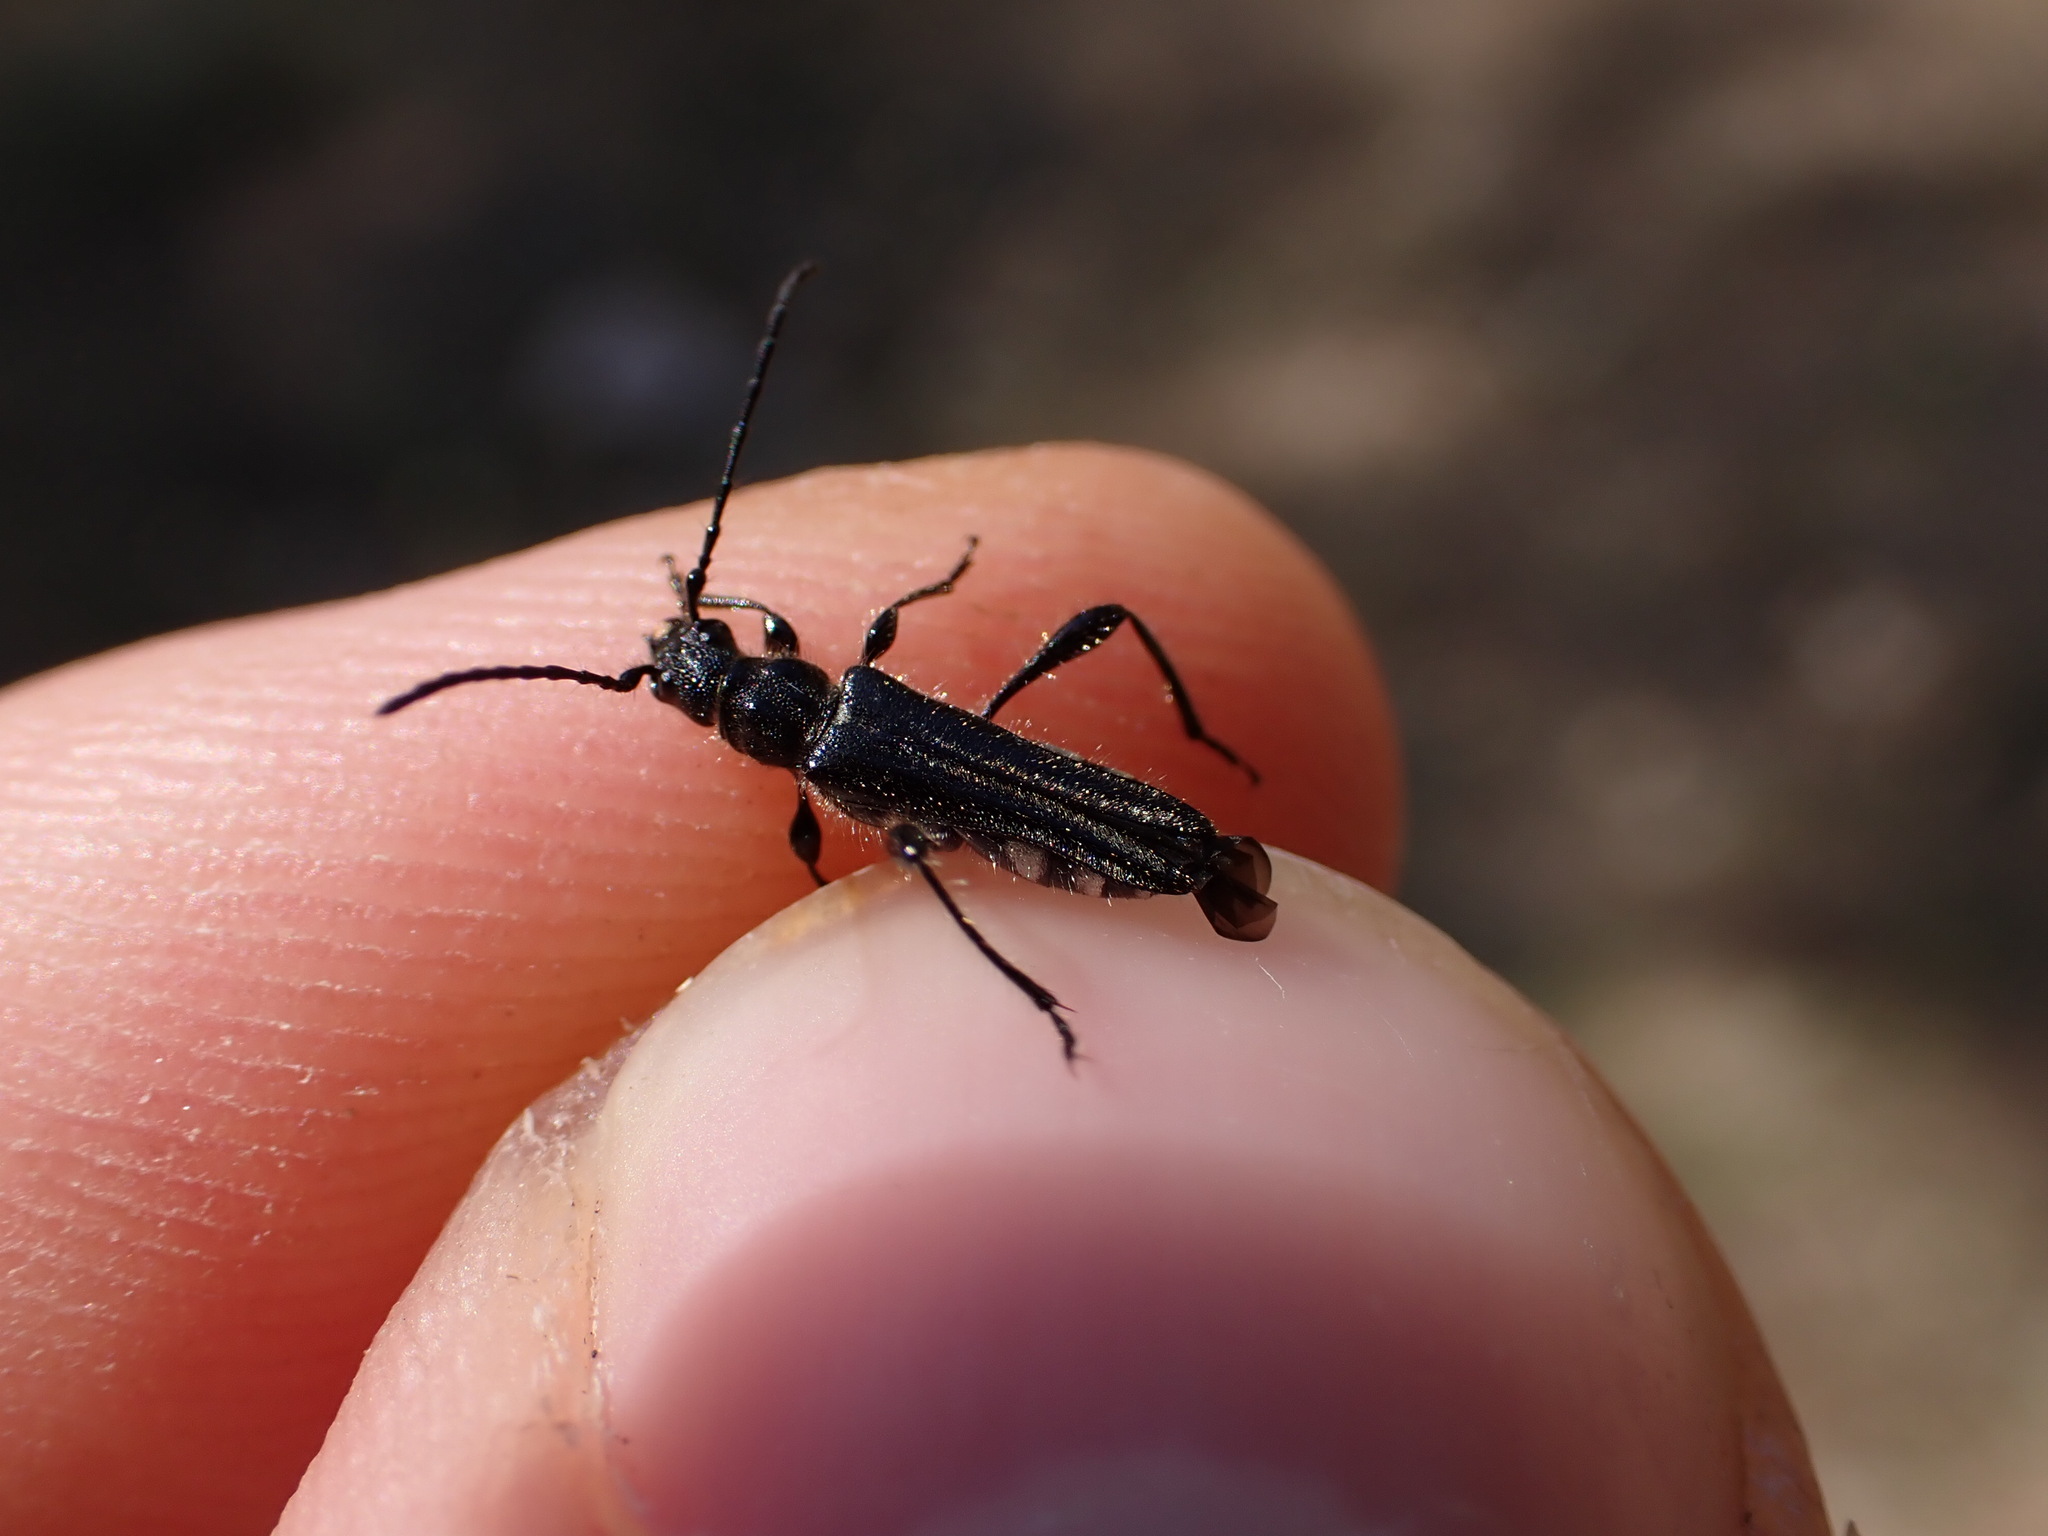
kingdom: Animalia
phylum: Arthropoda
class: Insecta
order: Coleoptera
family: Cerambycidae
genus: Stenopterus
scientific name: Stenopterus ater
